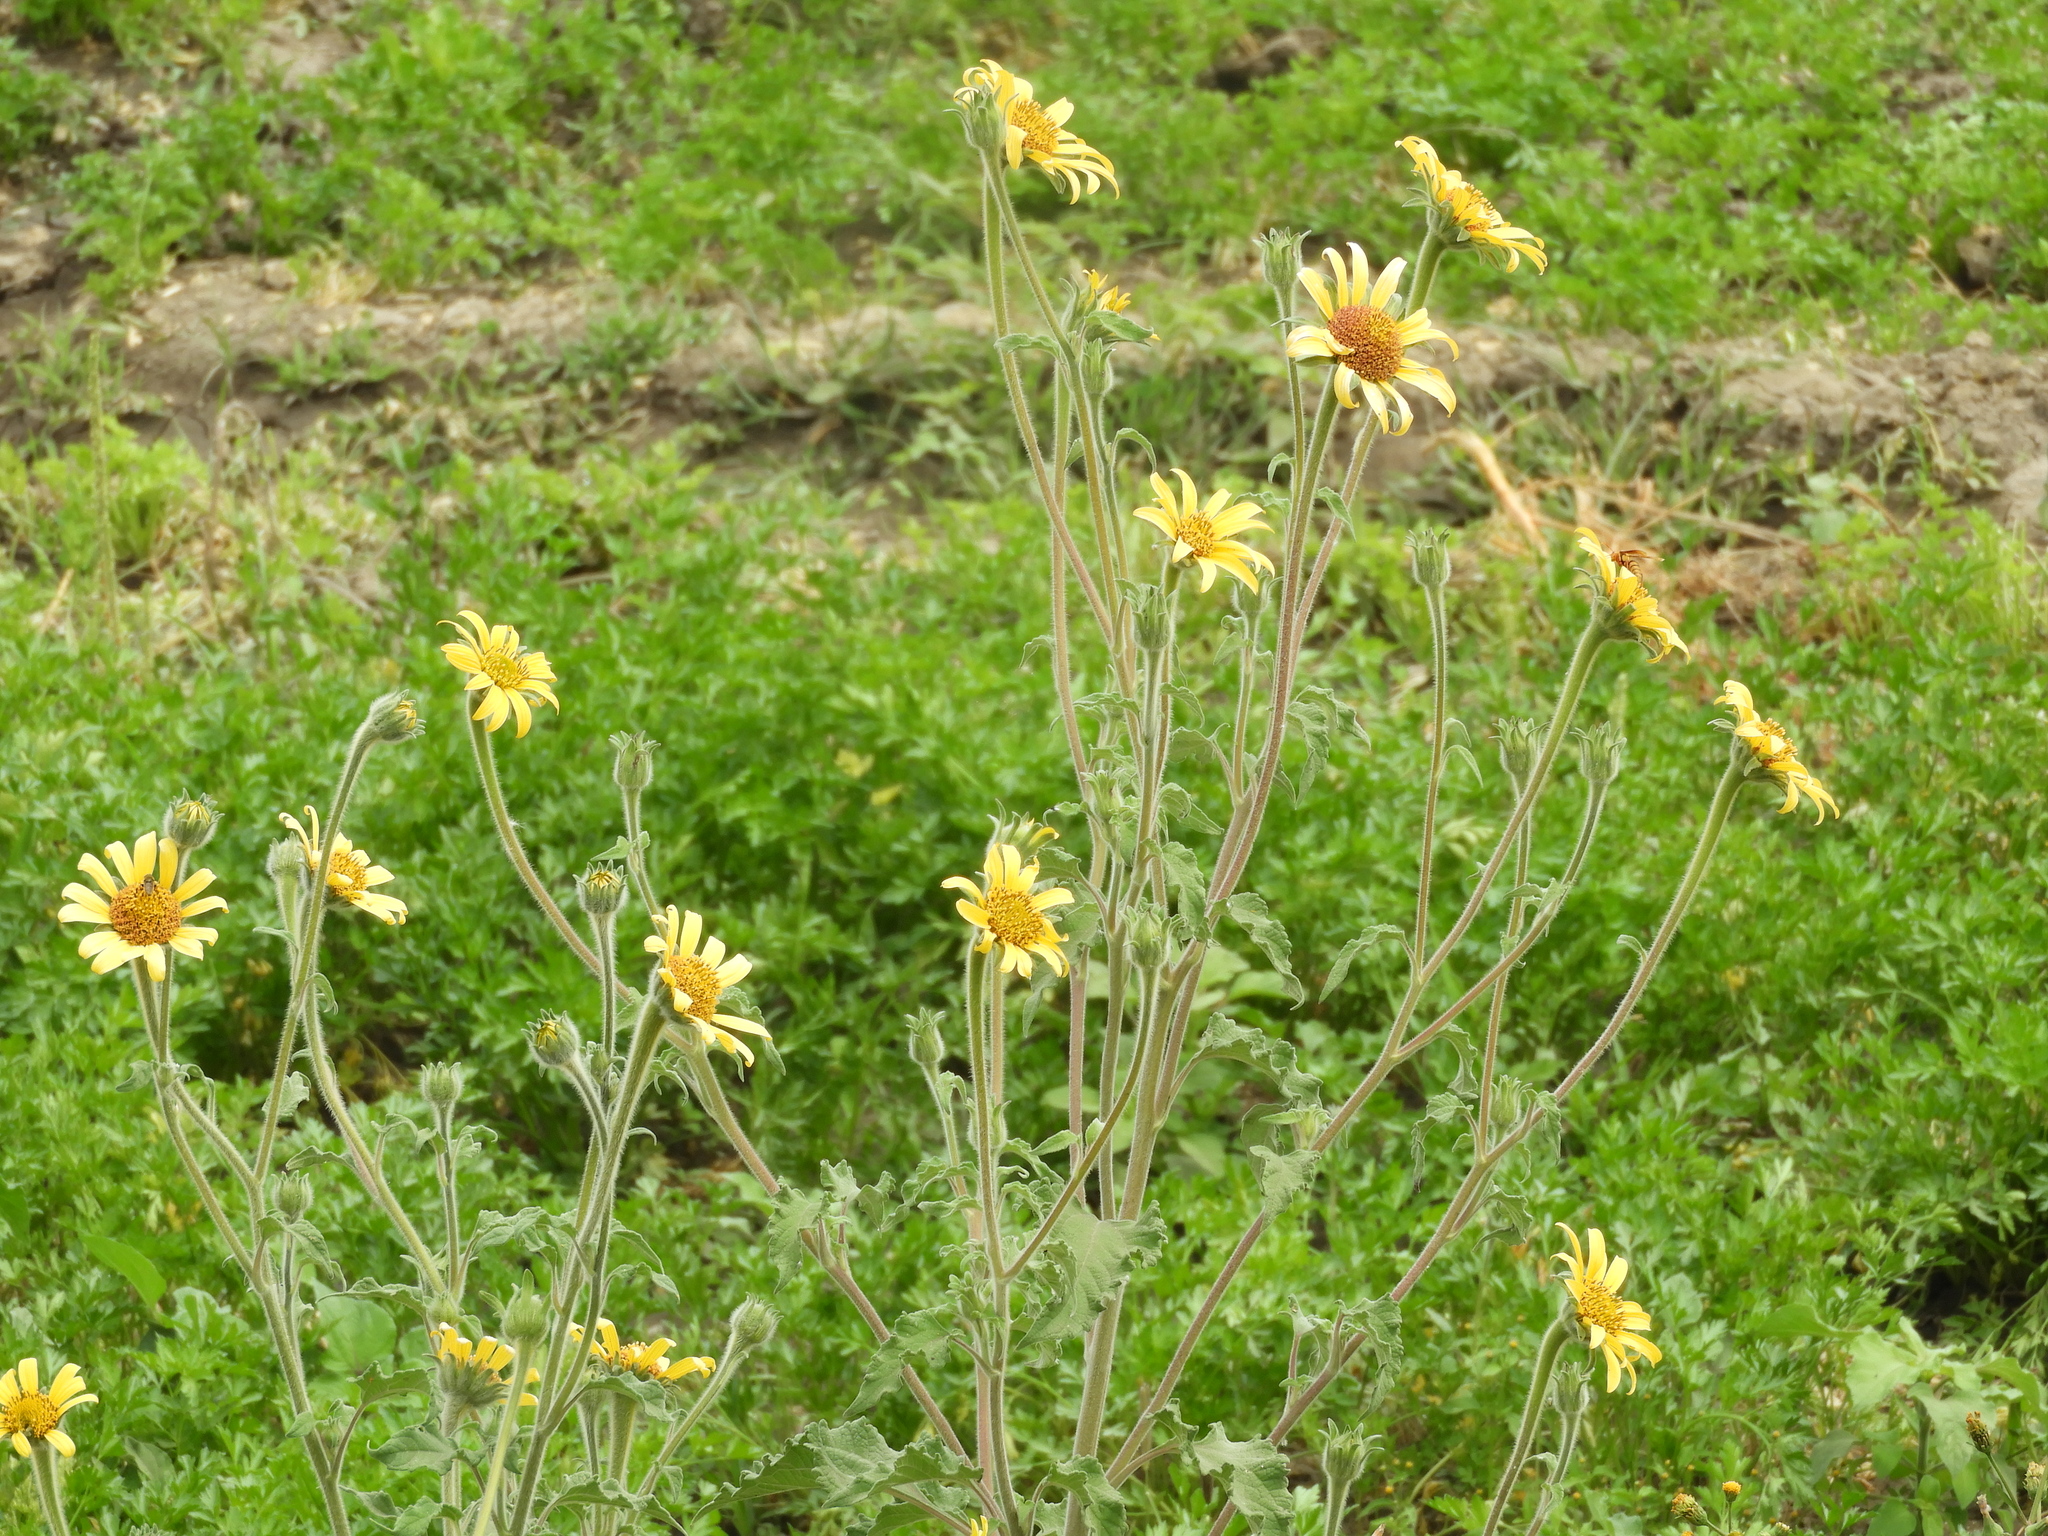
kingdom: Plantae
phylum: Tracheophyta
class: Magnoliopsida
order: Asterales
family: Asteraceae
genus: Tithonia
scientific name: Tithonia tubaeformis
